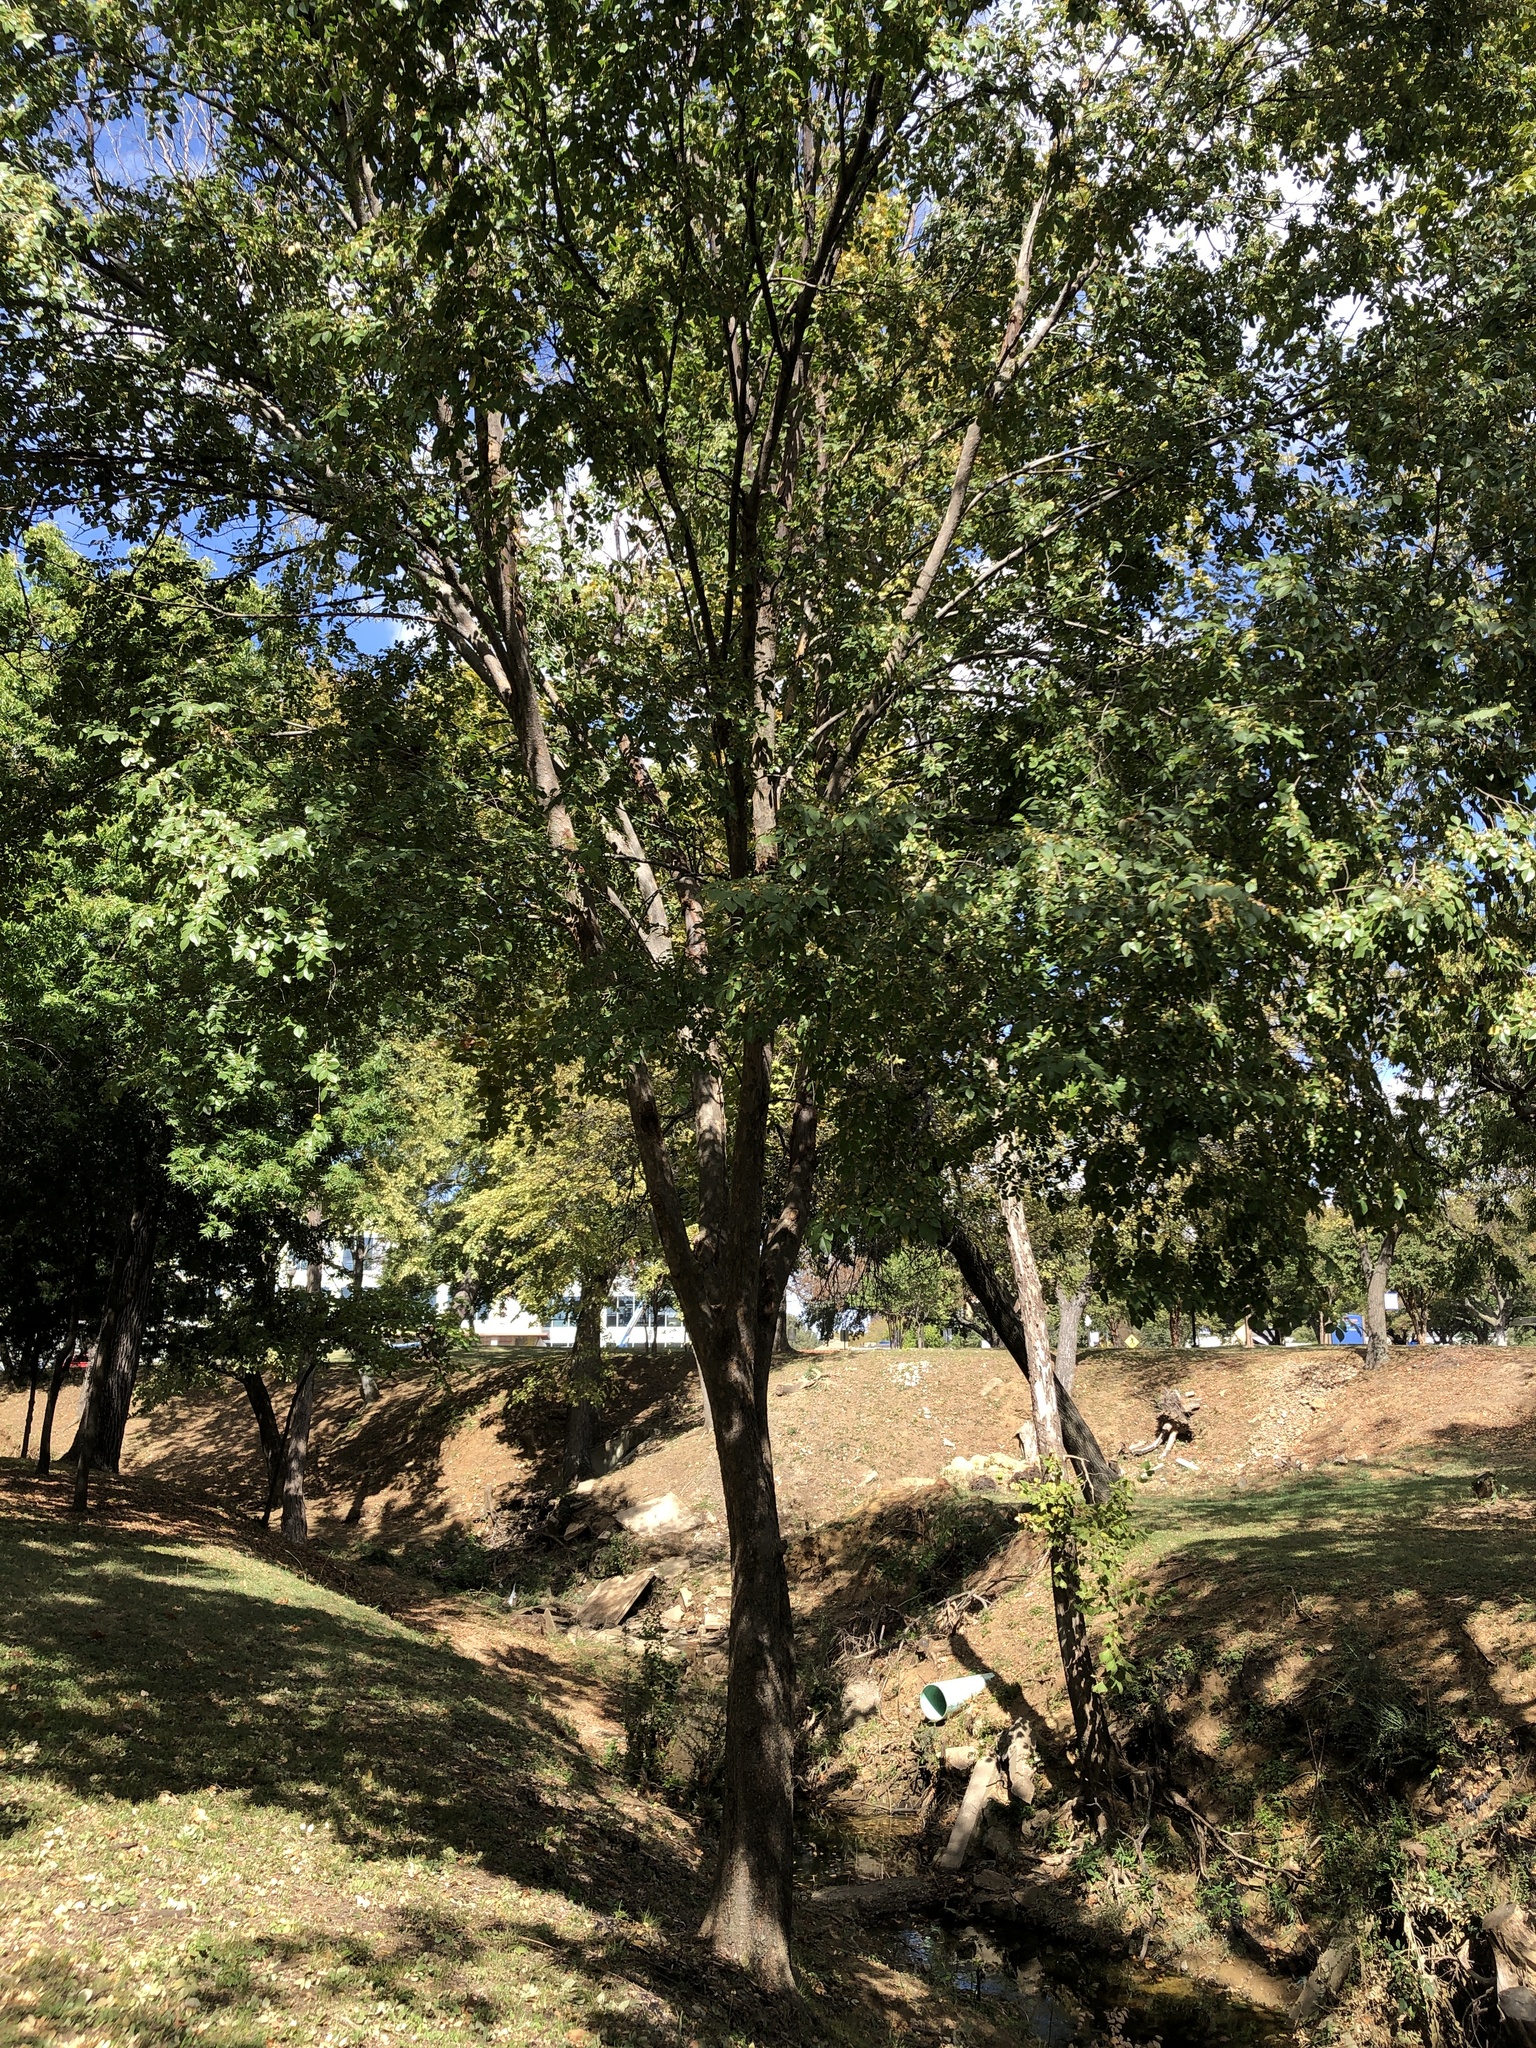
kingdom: Plantae
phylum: Tracheophyta
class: Magnoliopsida
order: Rosales
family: Ulmaceae
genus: Ulmus
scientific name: Ulmus parvifolia
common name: Chinese elm
